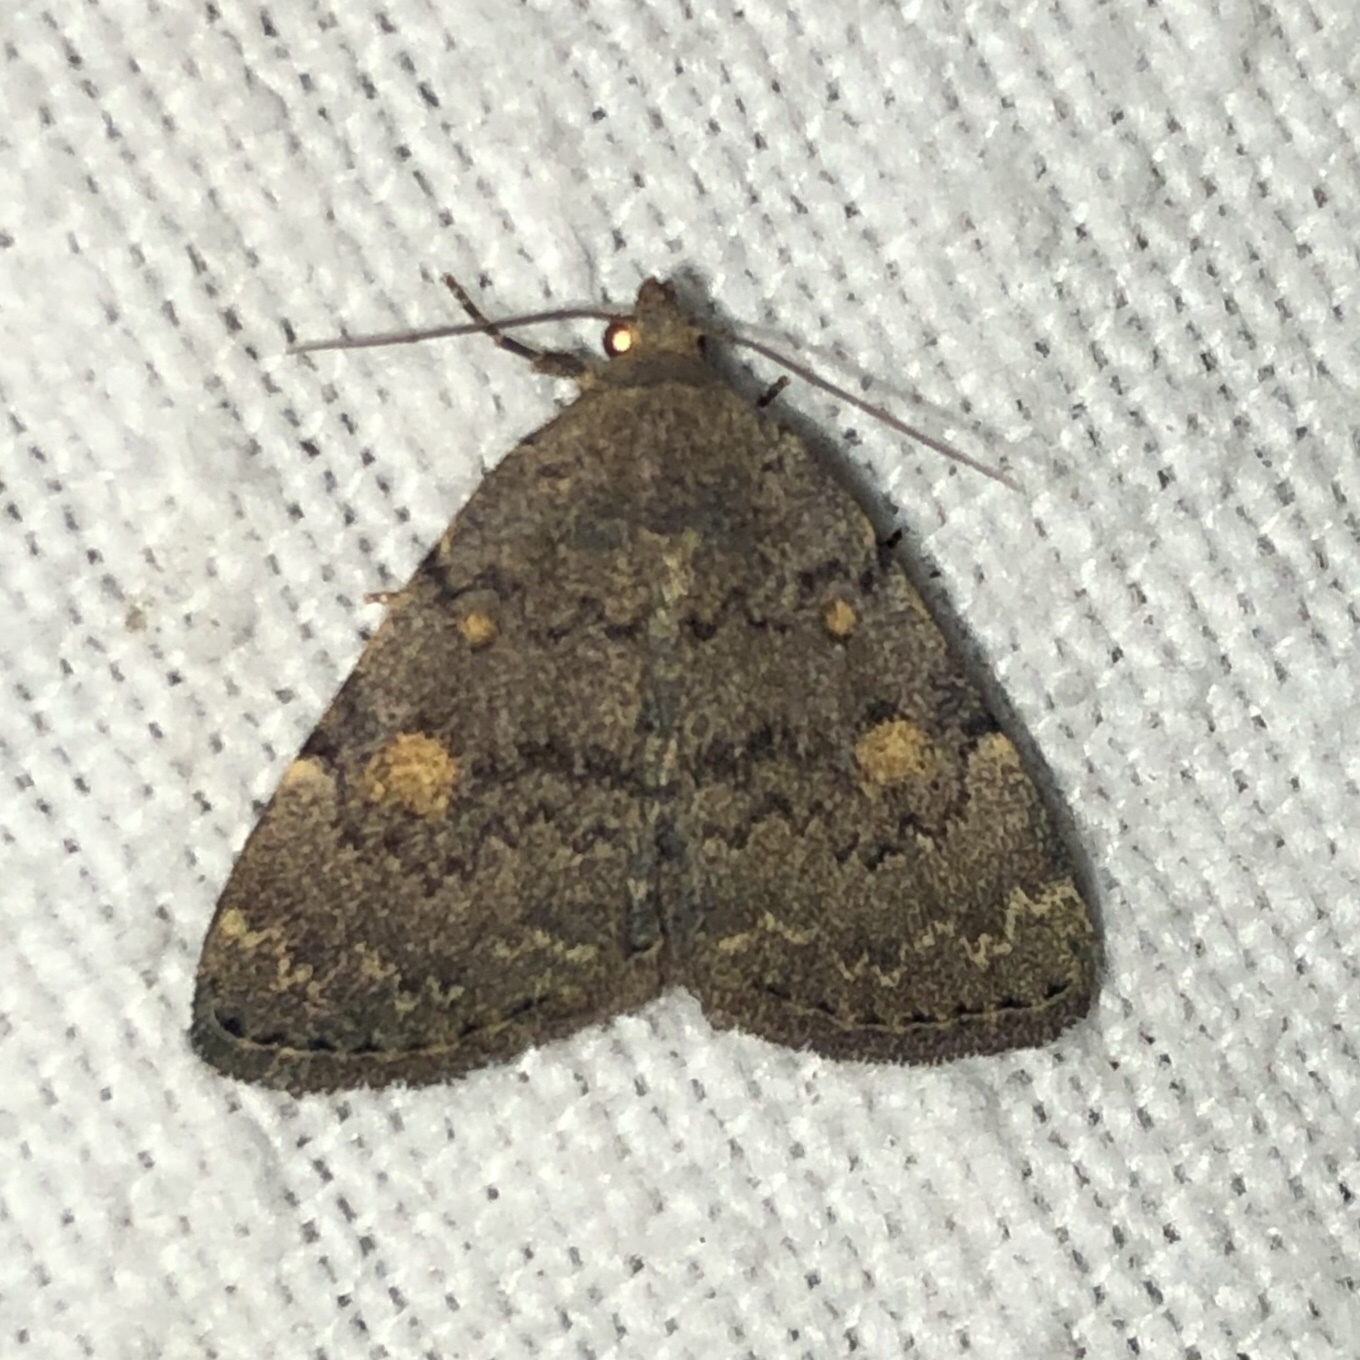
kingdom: Animalia
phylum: Arthropoda
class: Insecta
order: Lepidoptera
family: Erebidae
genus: Idia
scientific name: Idia aemula
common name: Common idia moth
